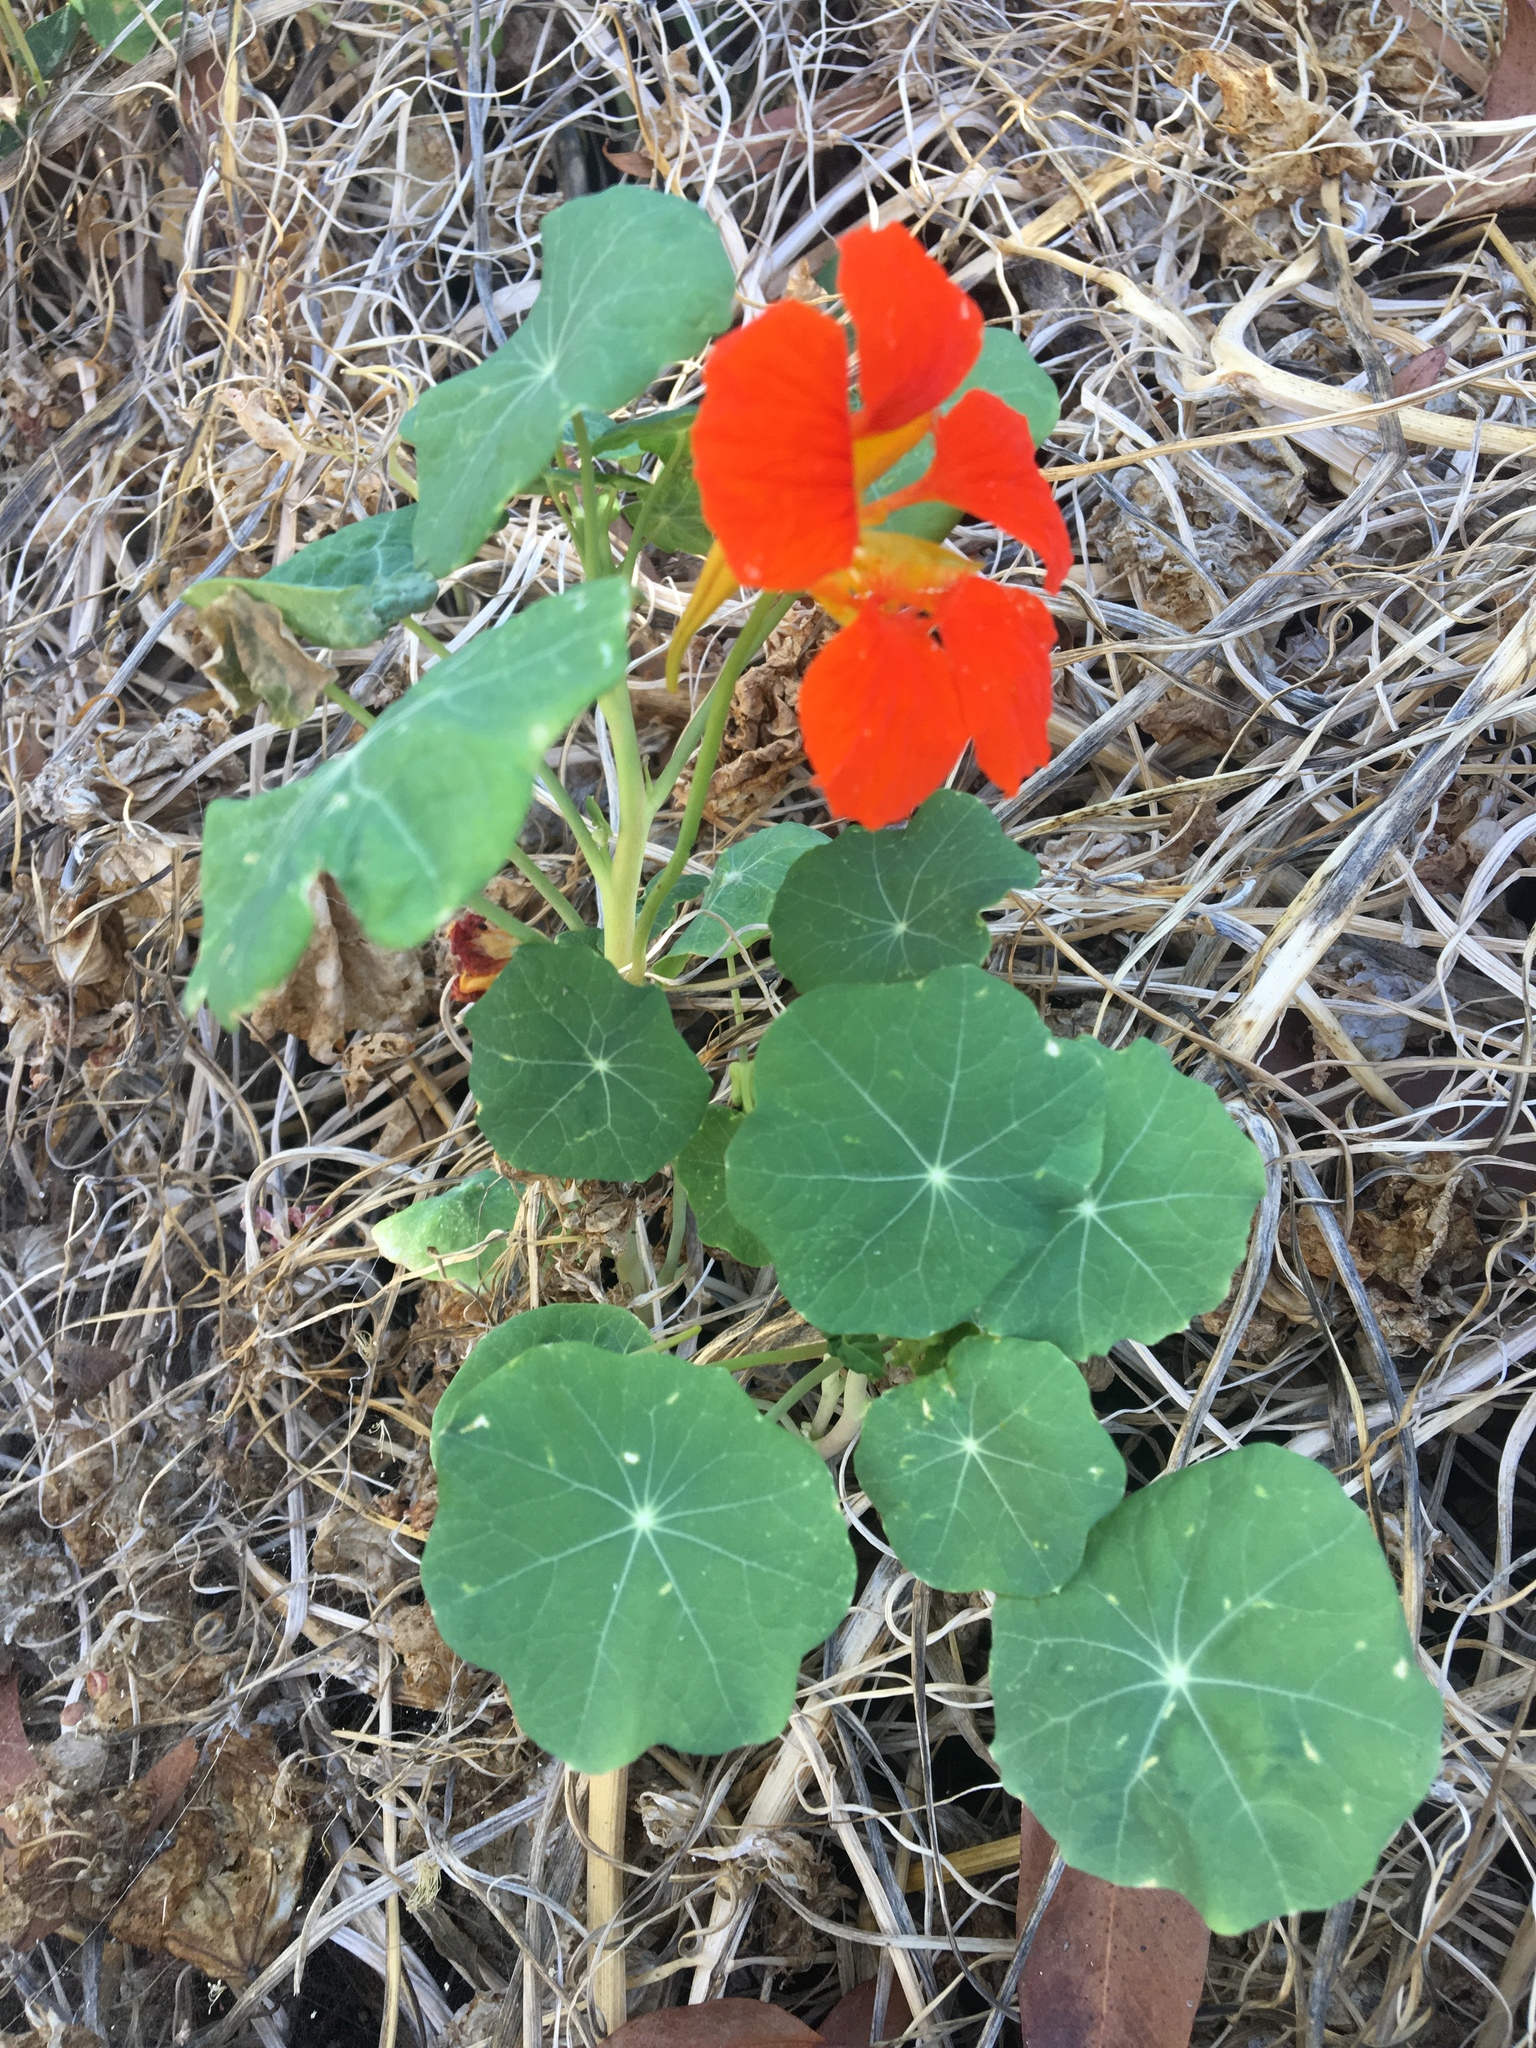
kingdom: Plantae
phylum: Tracheophyta
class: Magnoliopsida
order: Brassicales
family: Tropaeolaceae
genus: Tropaeolum
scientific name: Tropaeolum majus
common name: Nasturtium
